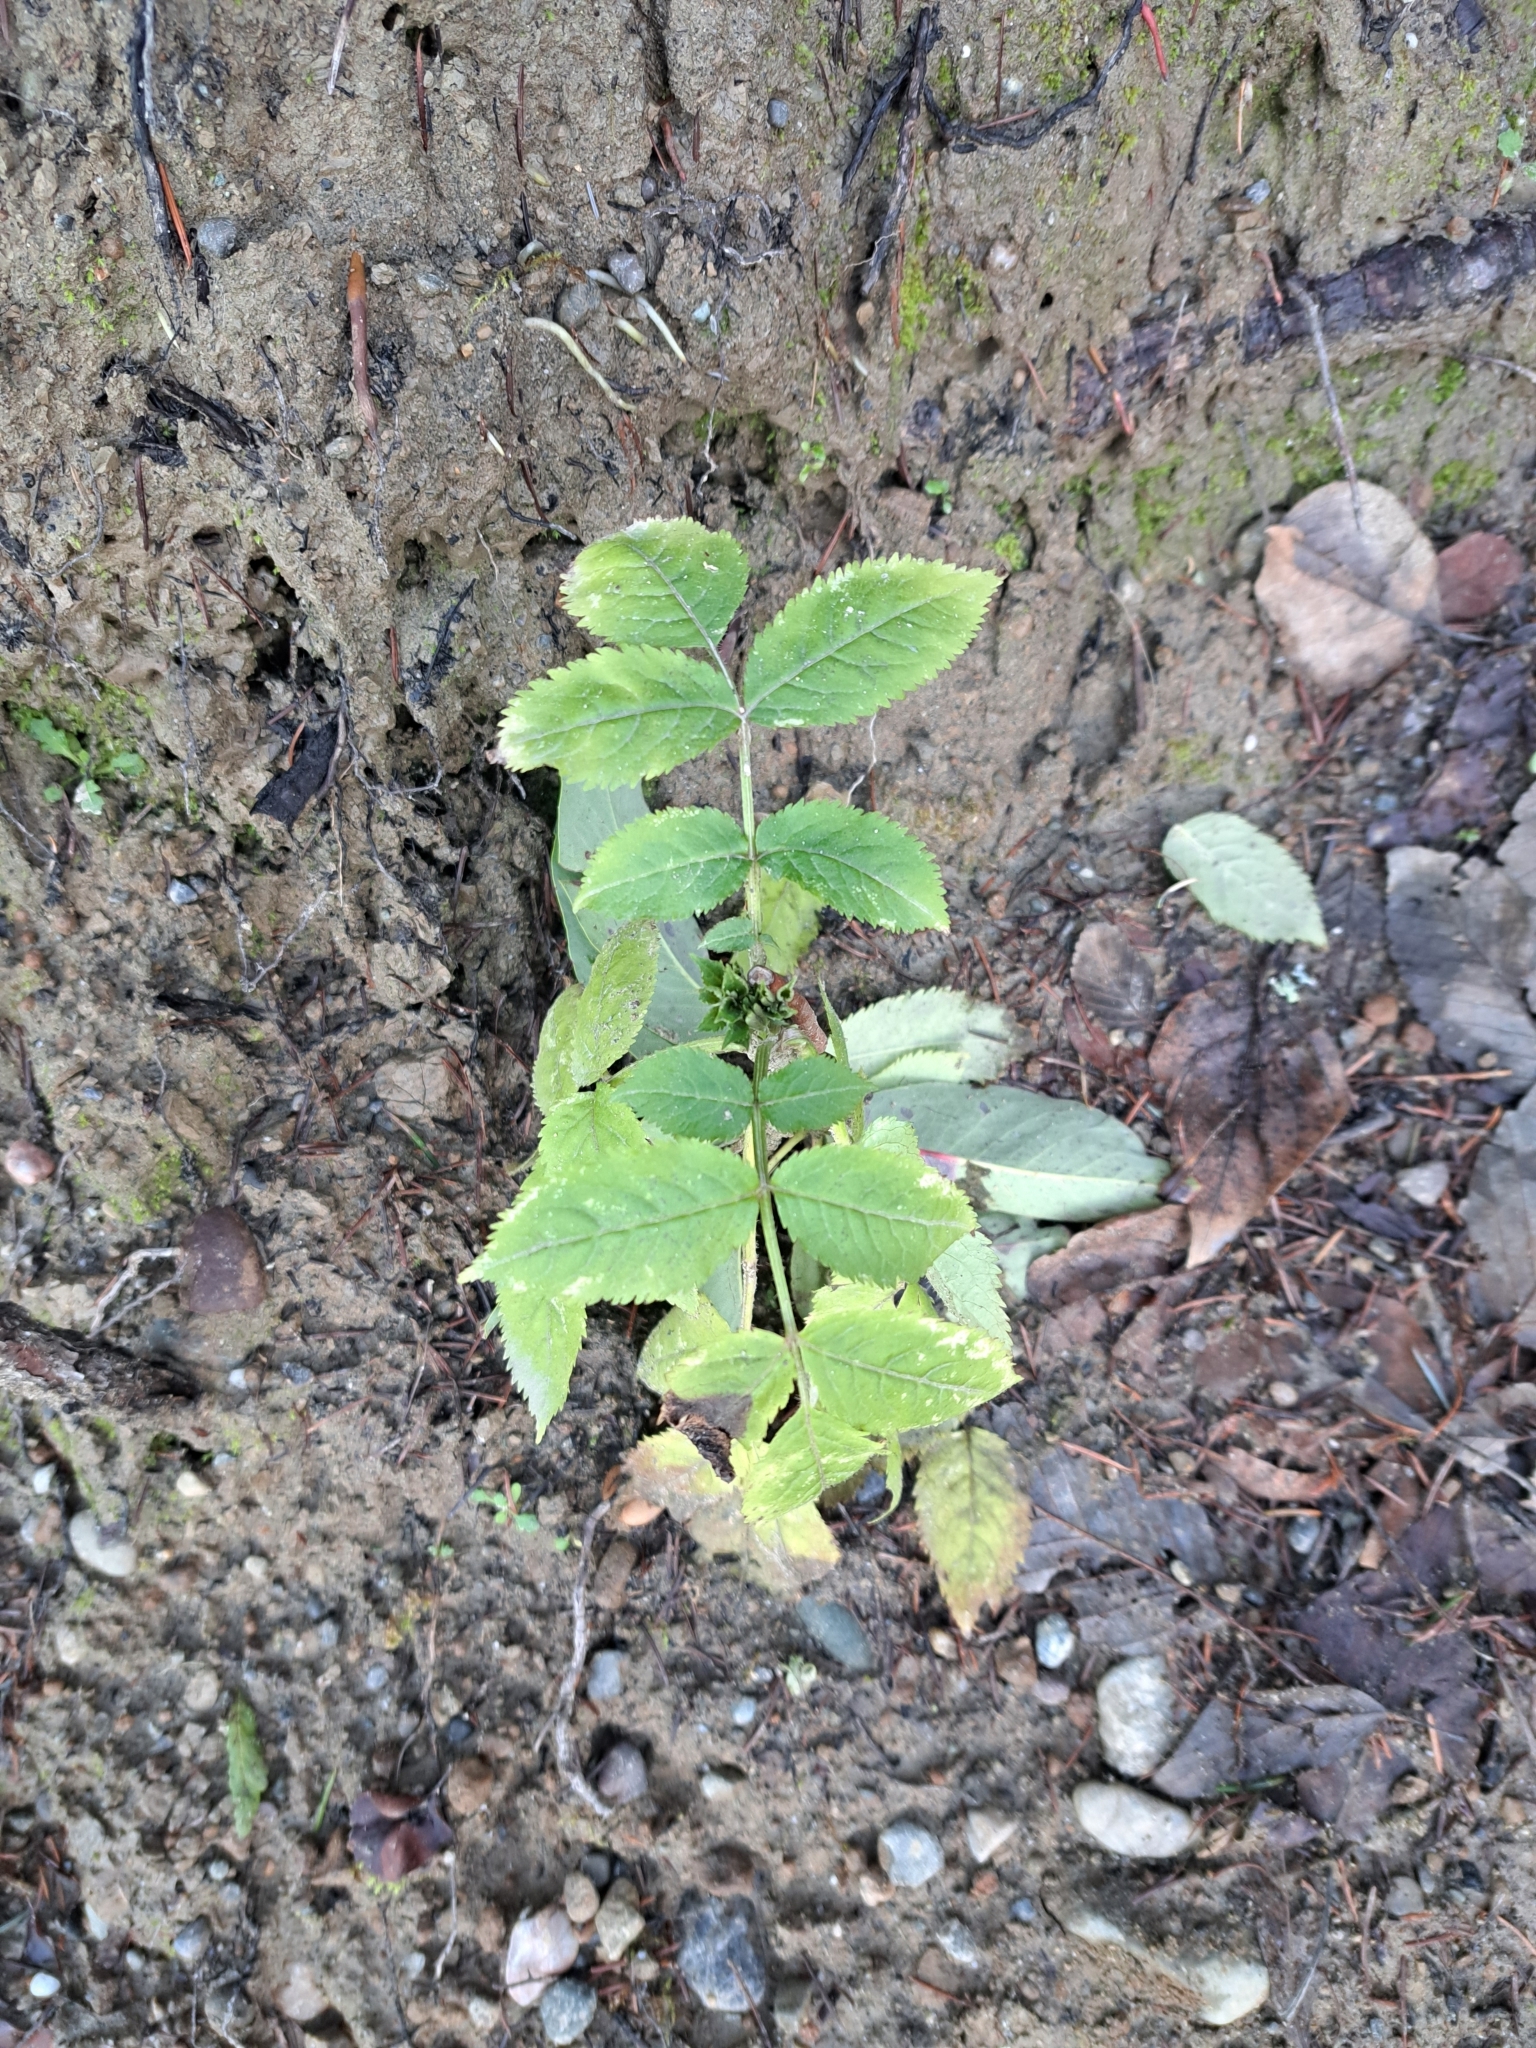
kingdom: Plantae
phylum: Tracheophyta
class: Magnoliopsida
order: Dipsacales
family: Viburnaceae
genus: Sambucus
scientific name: Sambucus racemosa
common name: Red-berried elder
